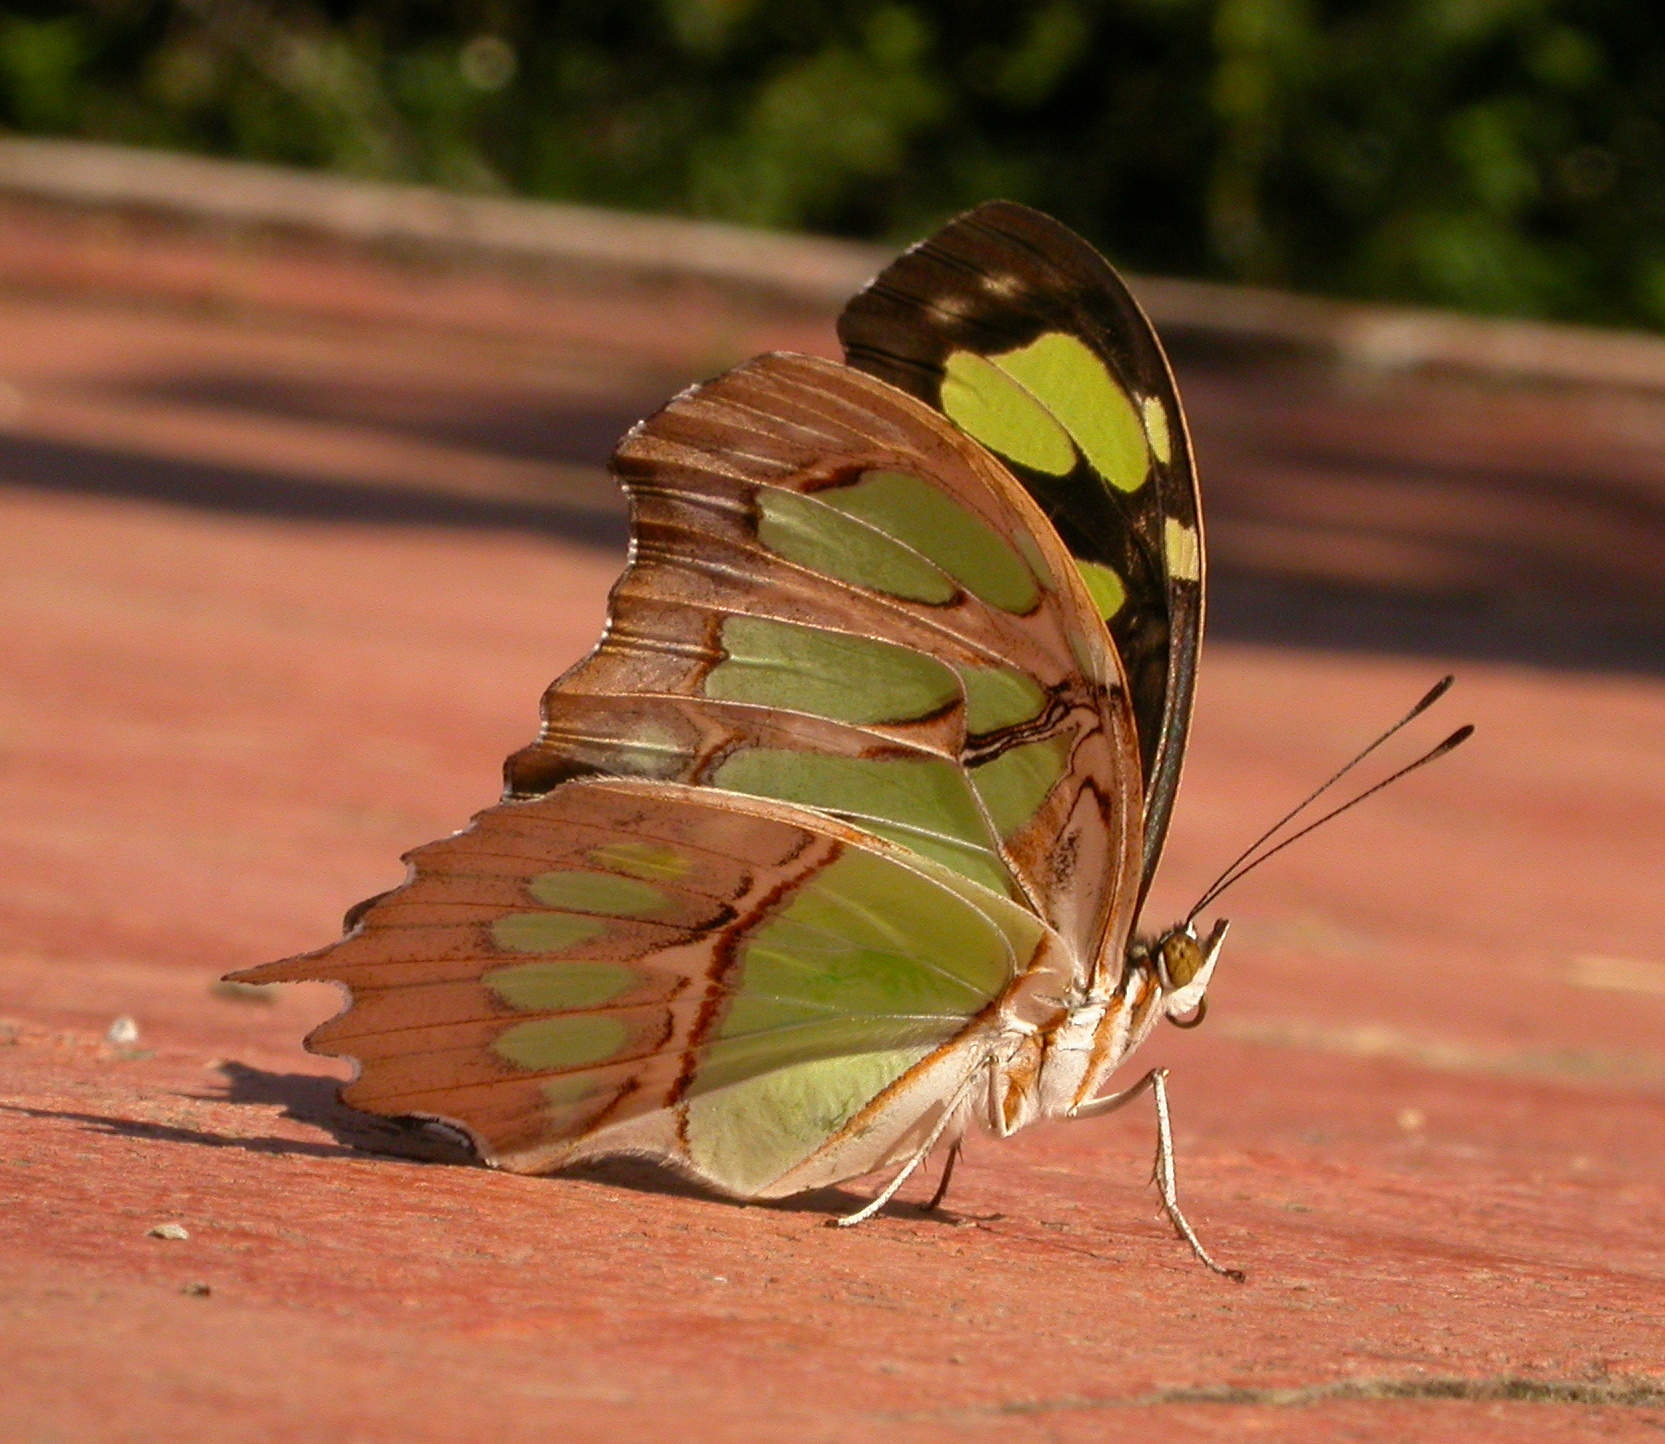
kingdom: Animalia
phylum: Arthropoda
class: Insecta
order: Lepidoptera
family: Nymphalidae
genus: Siproeta
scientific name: Siproeta stelenes
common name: Malachite
